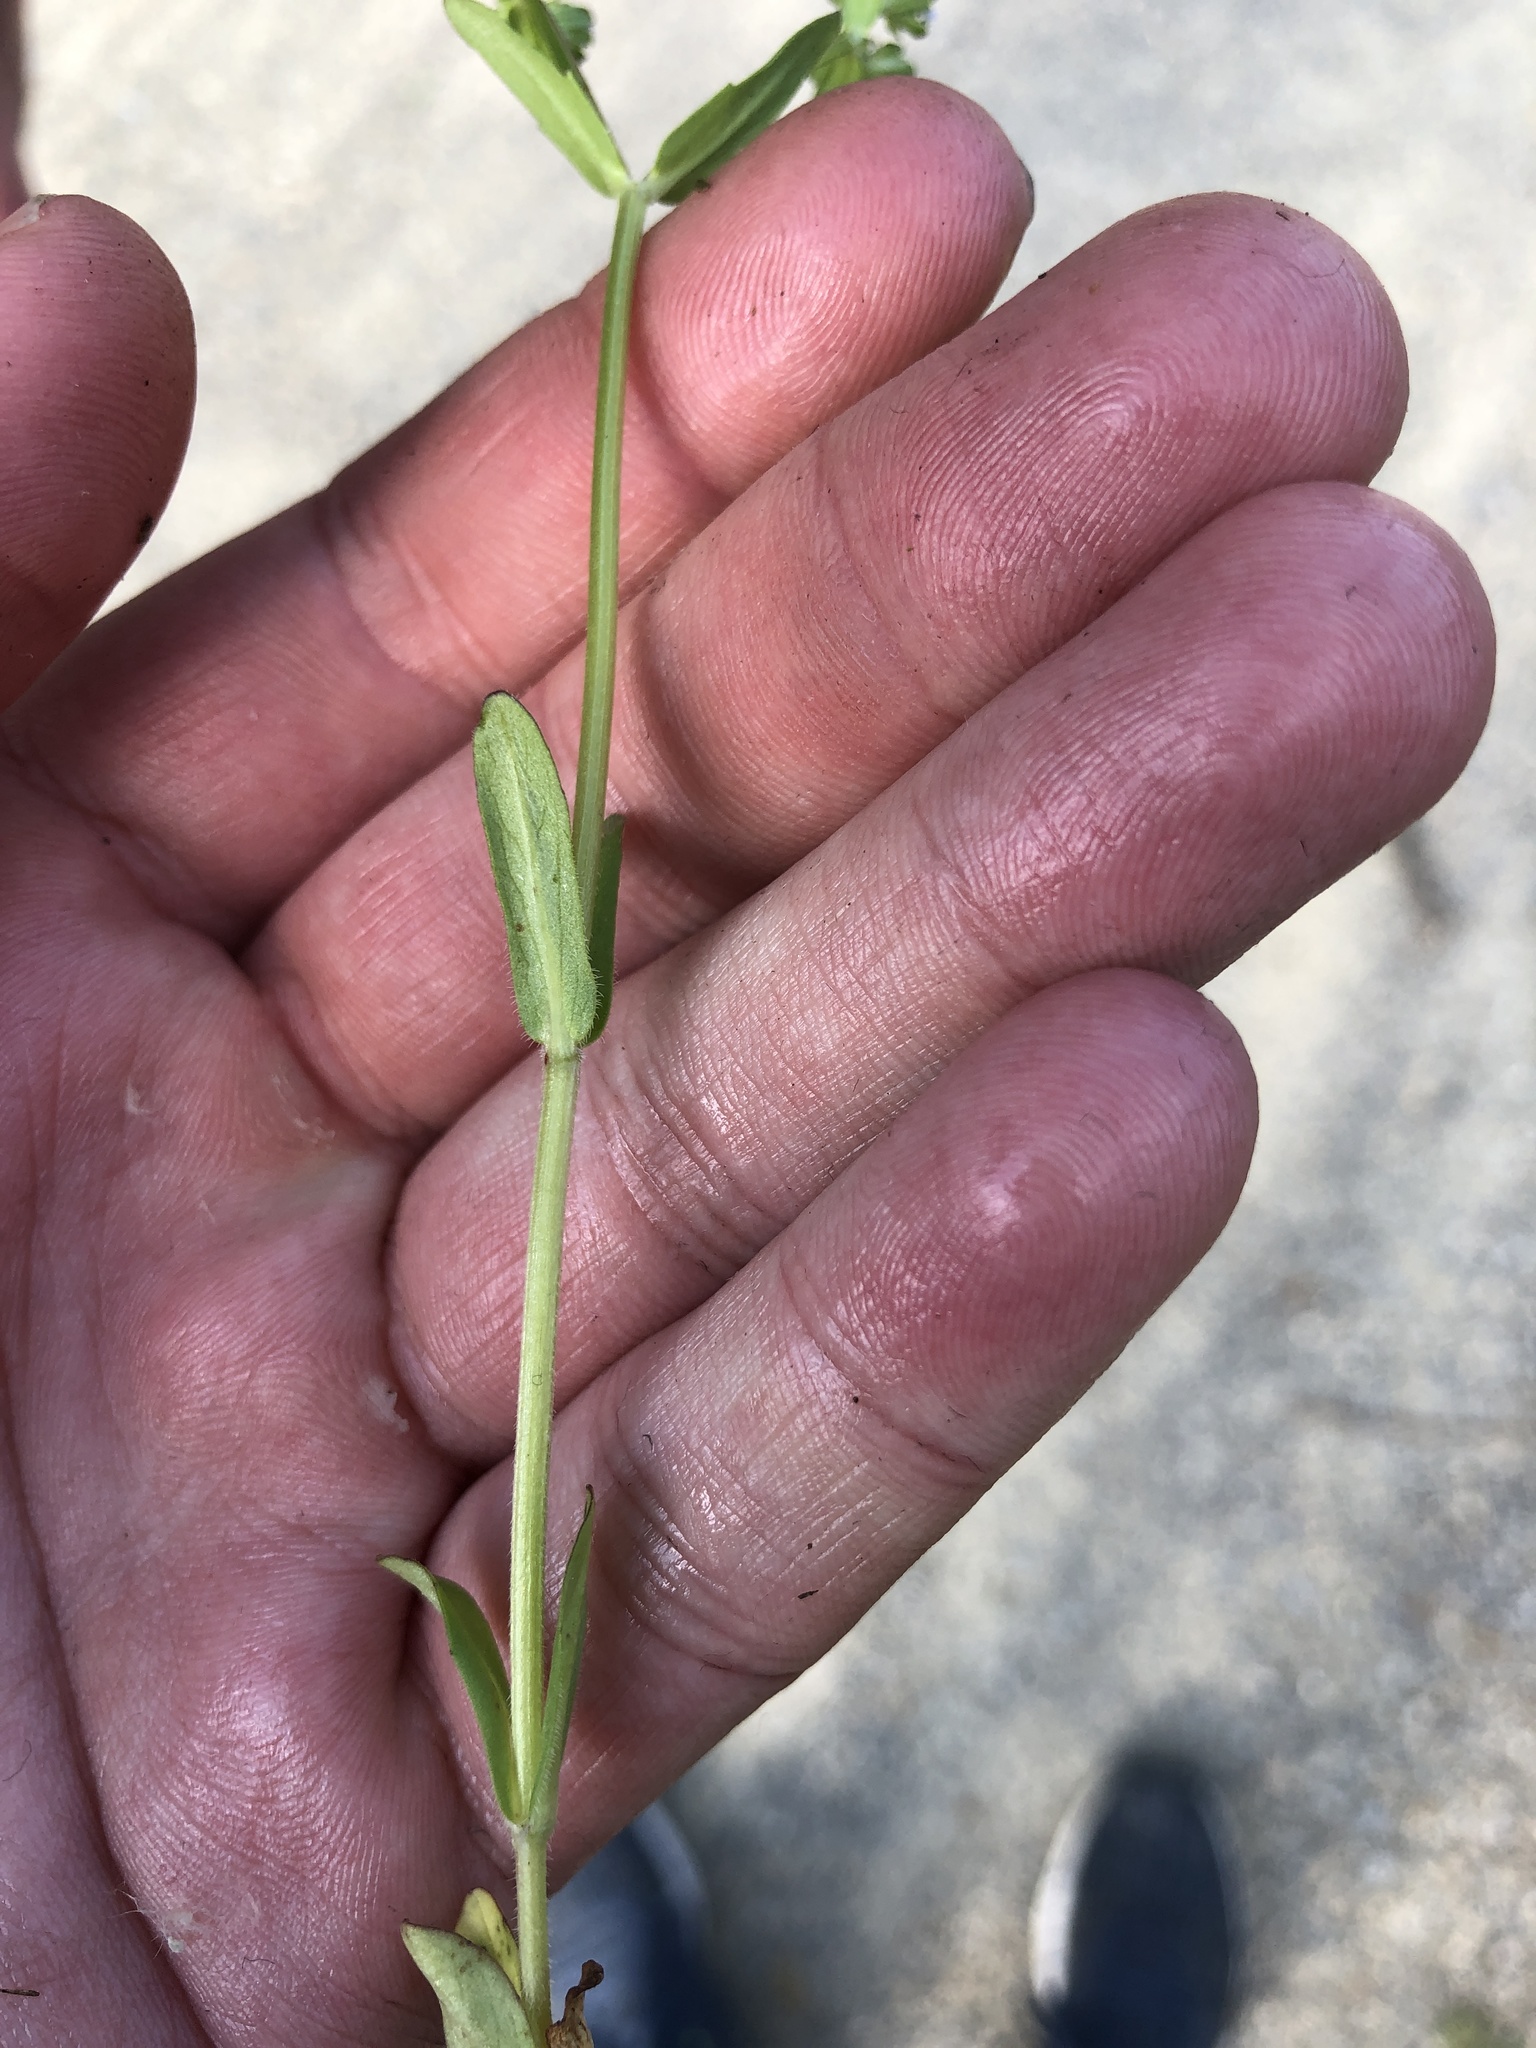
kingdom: Plantae
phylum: Tracheophyta
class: Magnoliopsida
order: Dipsacales
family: Caprifoliaceae
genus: Valerianella
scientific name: Valerianella locusta
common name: Common cornsalad
